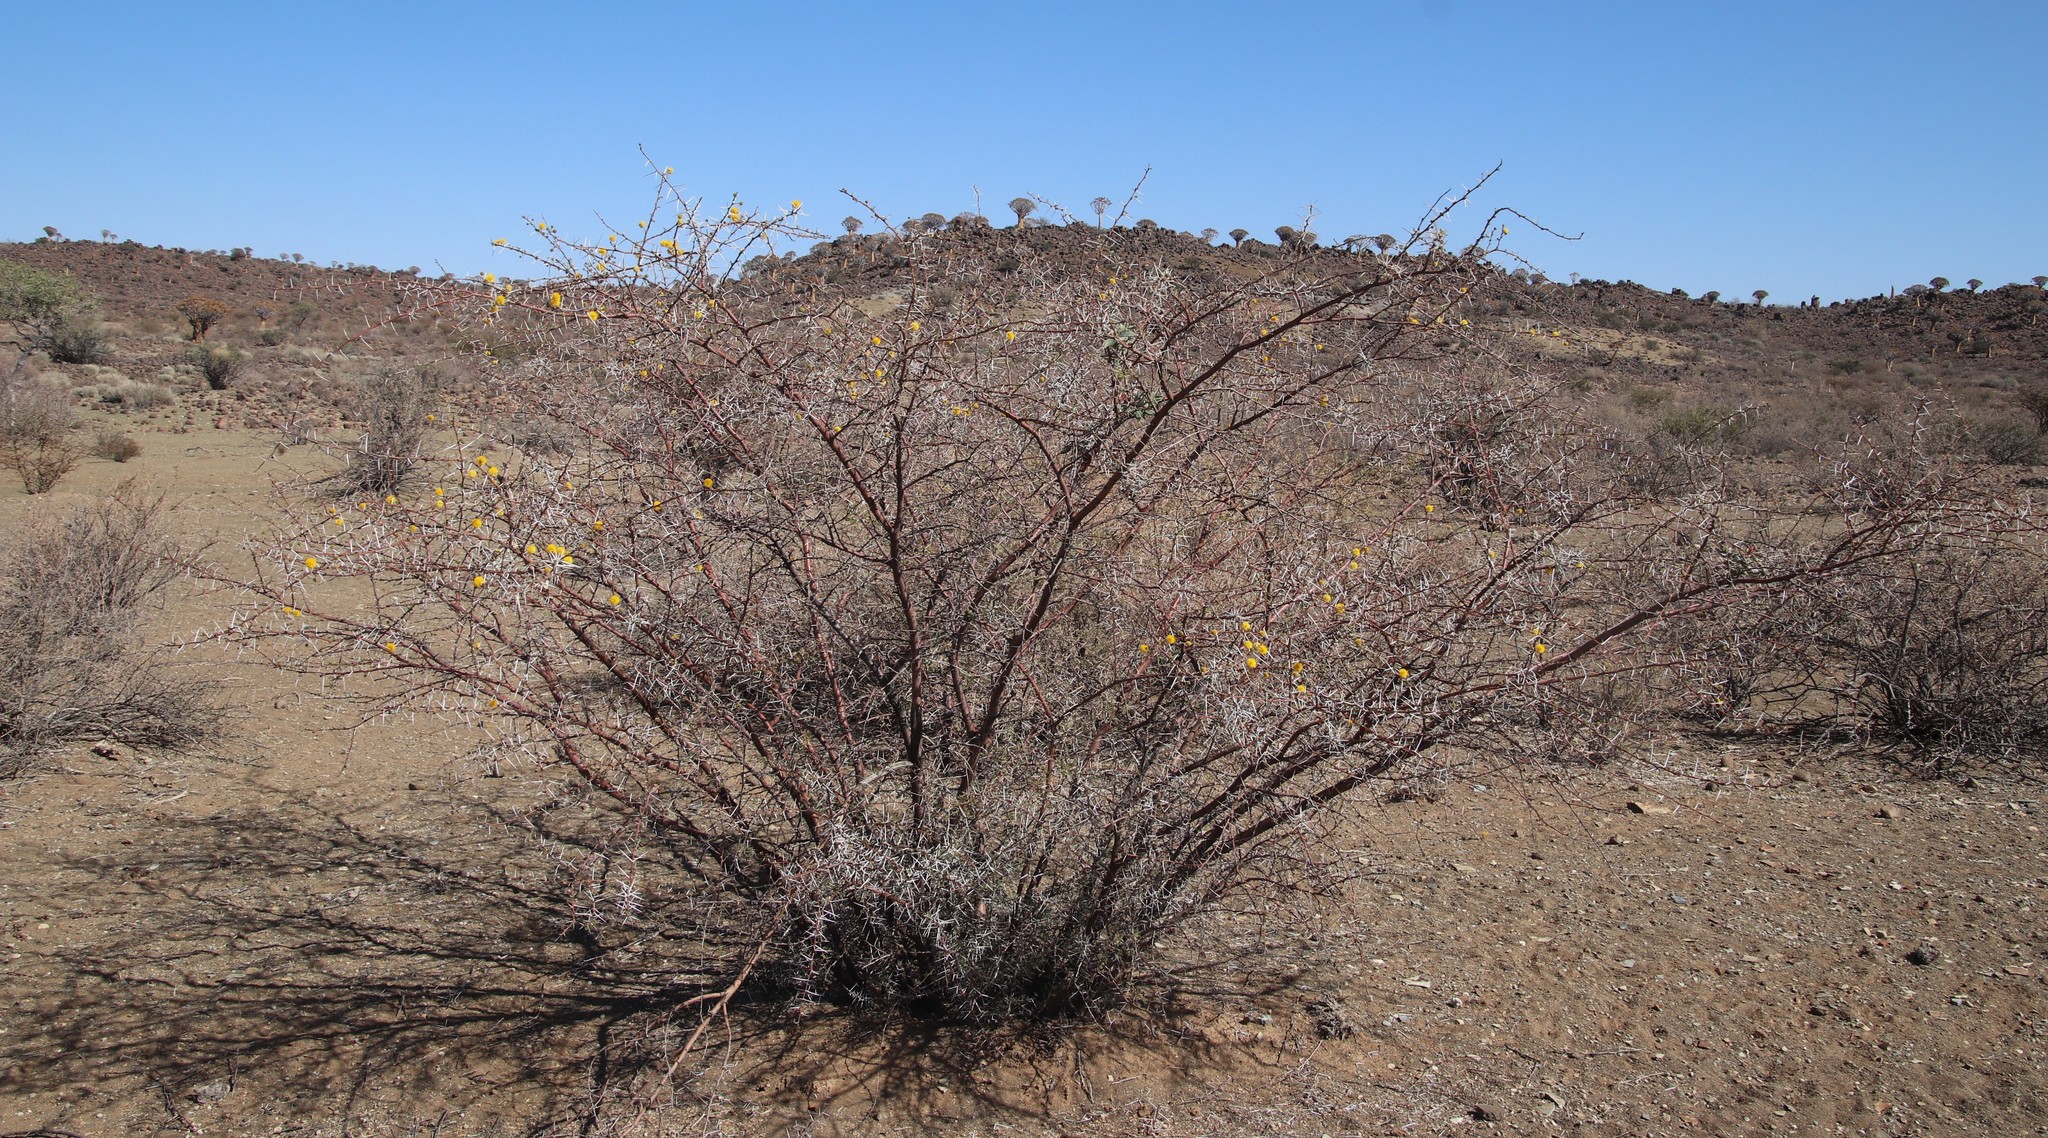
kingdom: Plantae
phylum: Tracheophyta
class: Magnoliopsida
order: Fabales
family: Fabaceae
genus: Vachellia
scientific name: Vachellia nebrownii
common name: Water acacia
